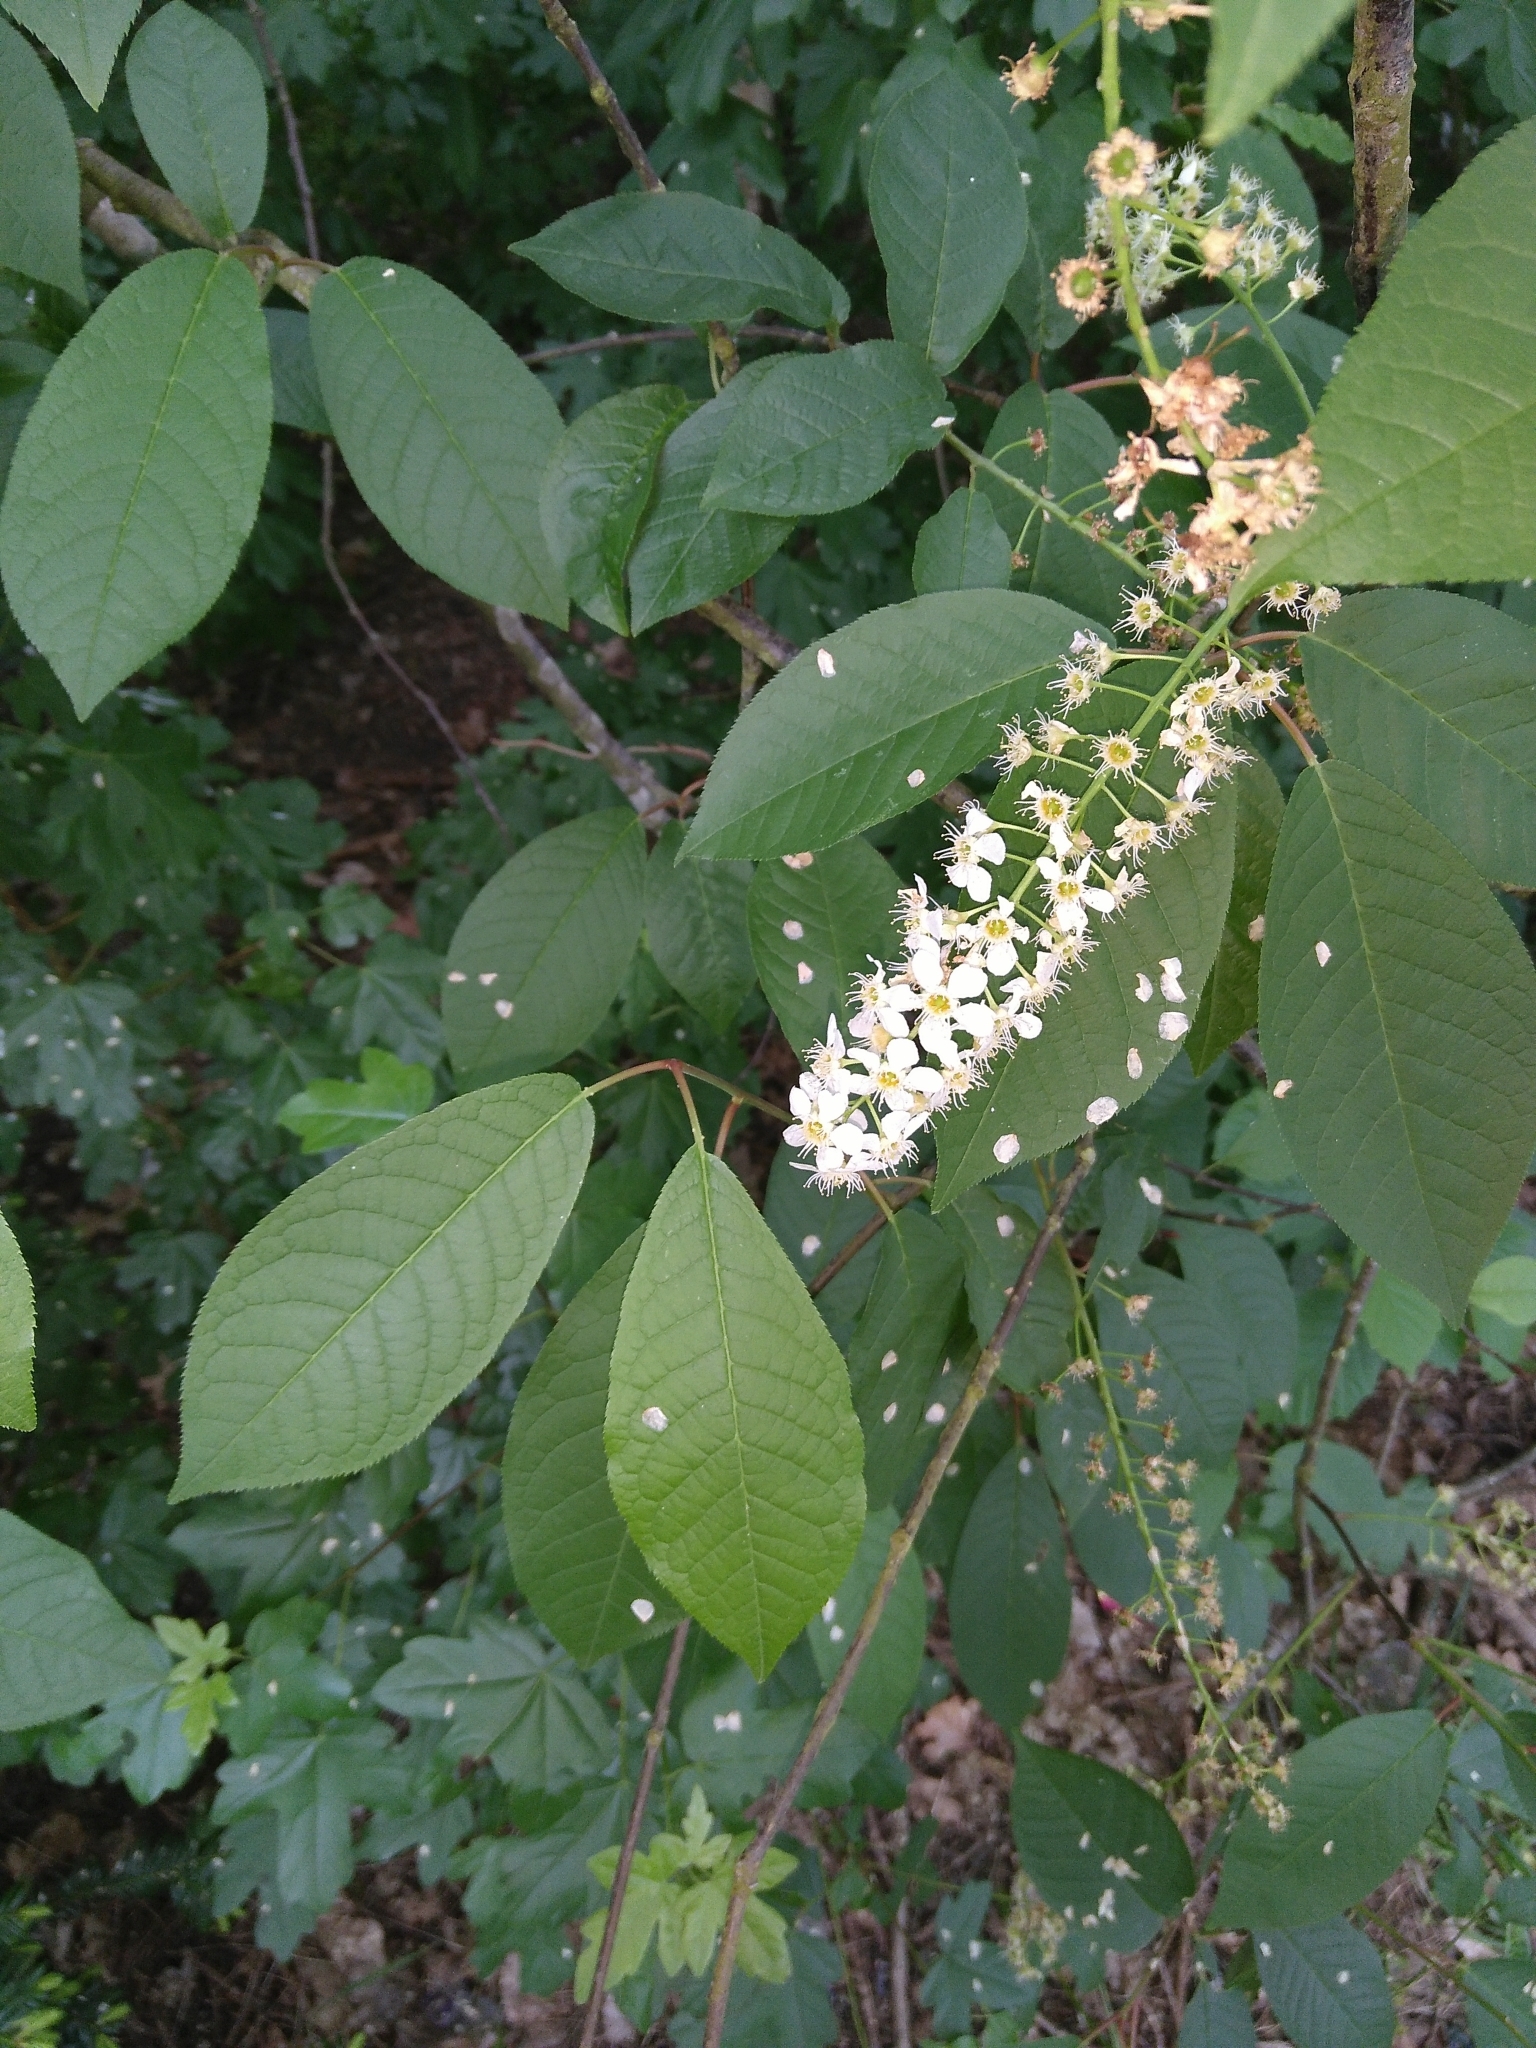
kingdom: Plantae
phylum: Tracheophyta
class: Magnoliopsida
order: Rosales
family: Rosaceae
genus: Prunus
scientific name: Prunus padus
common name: Bird cherry
